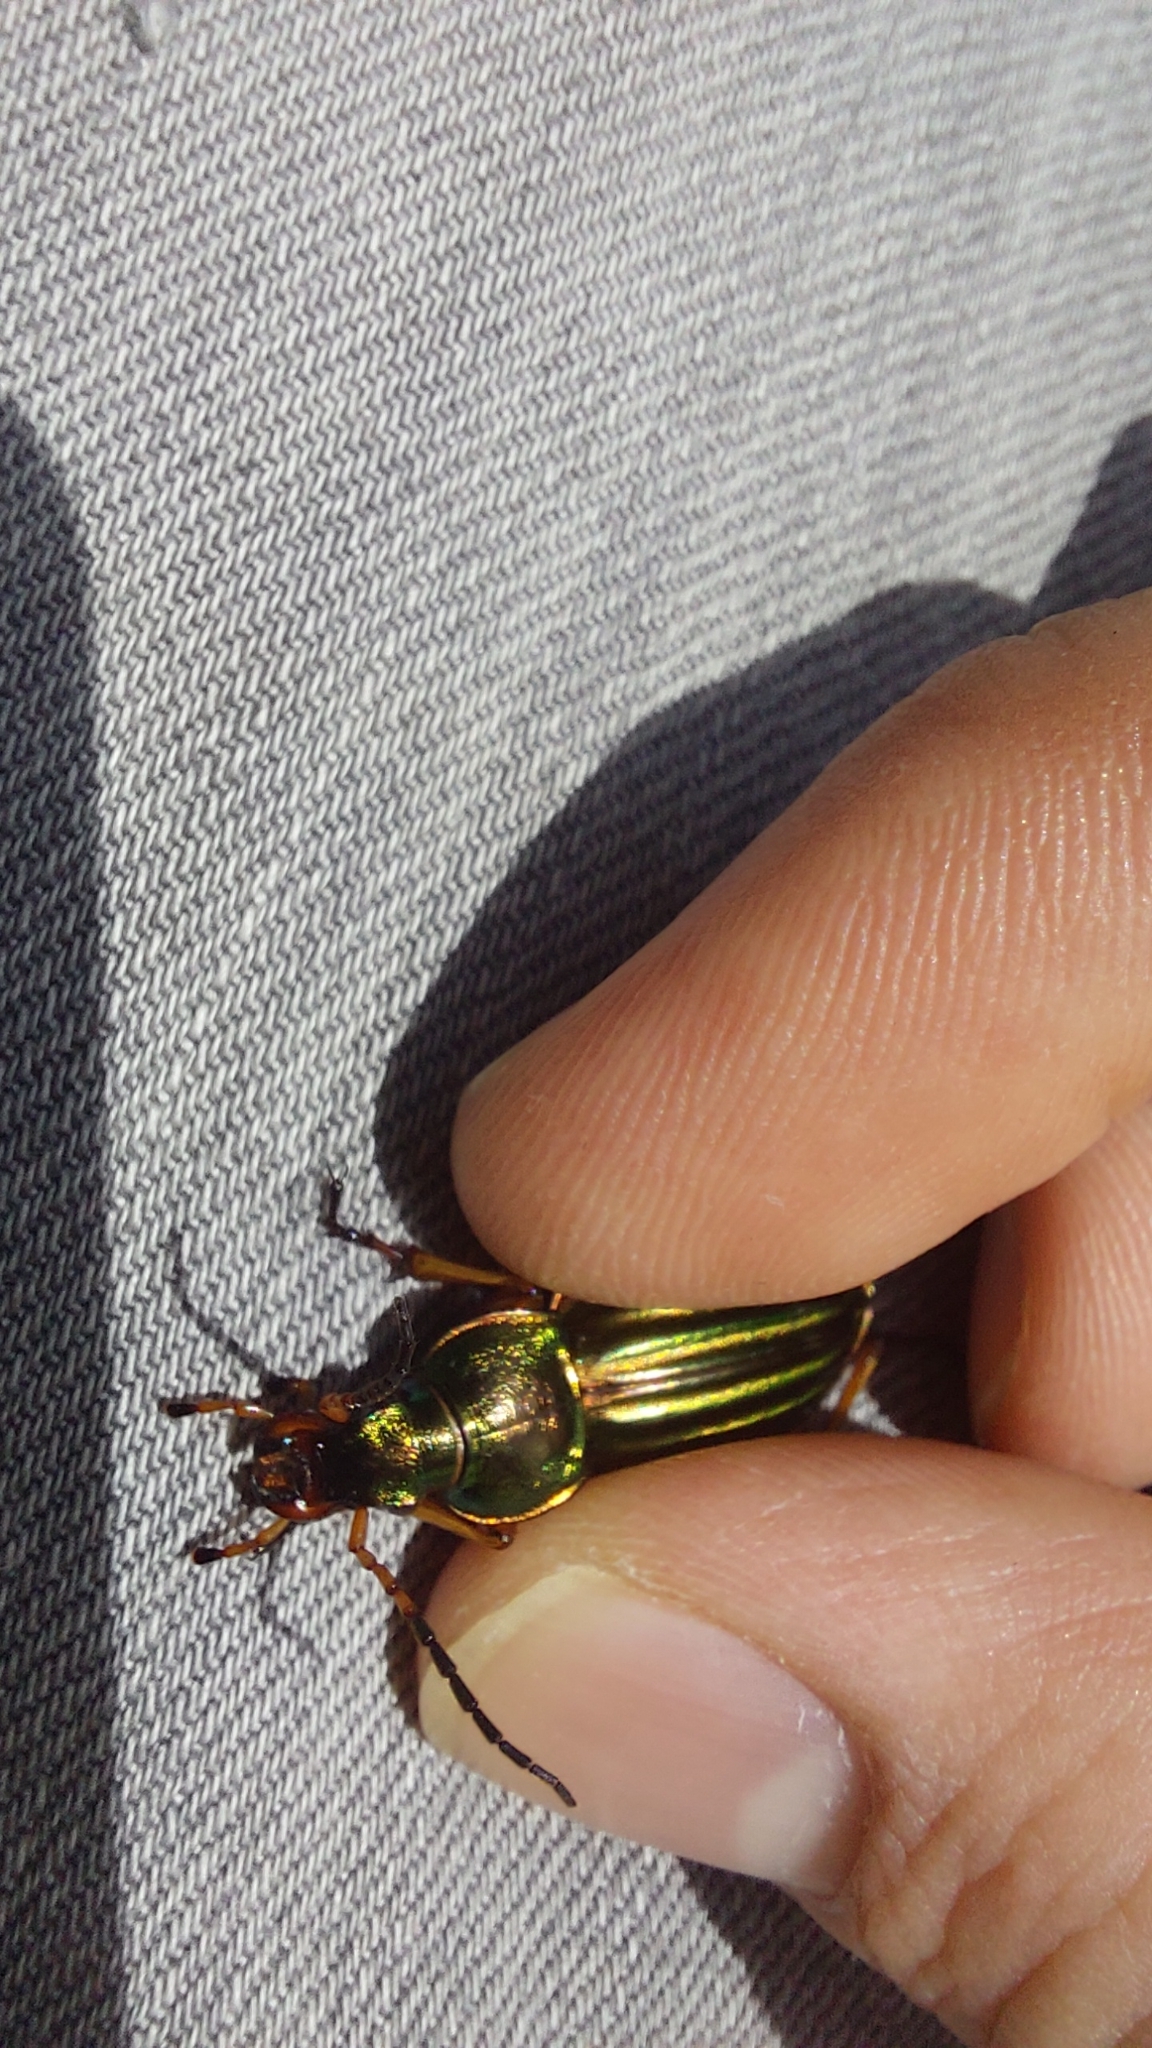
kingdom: Animalia
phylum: Arthropoda
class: Insecta
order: Coleoptera
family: Carabidae
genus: Carabus
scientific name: Carabus auratus
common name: Golden ground beetle
